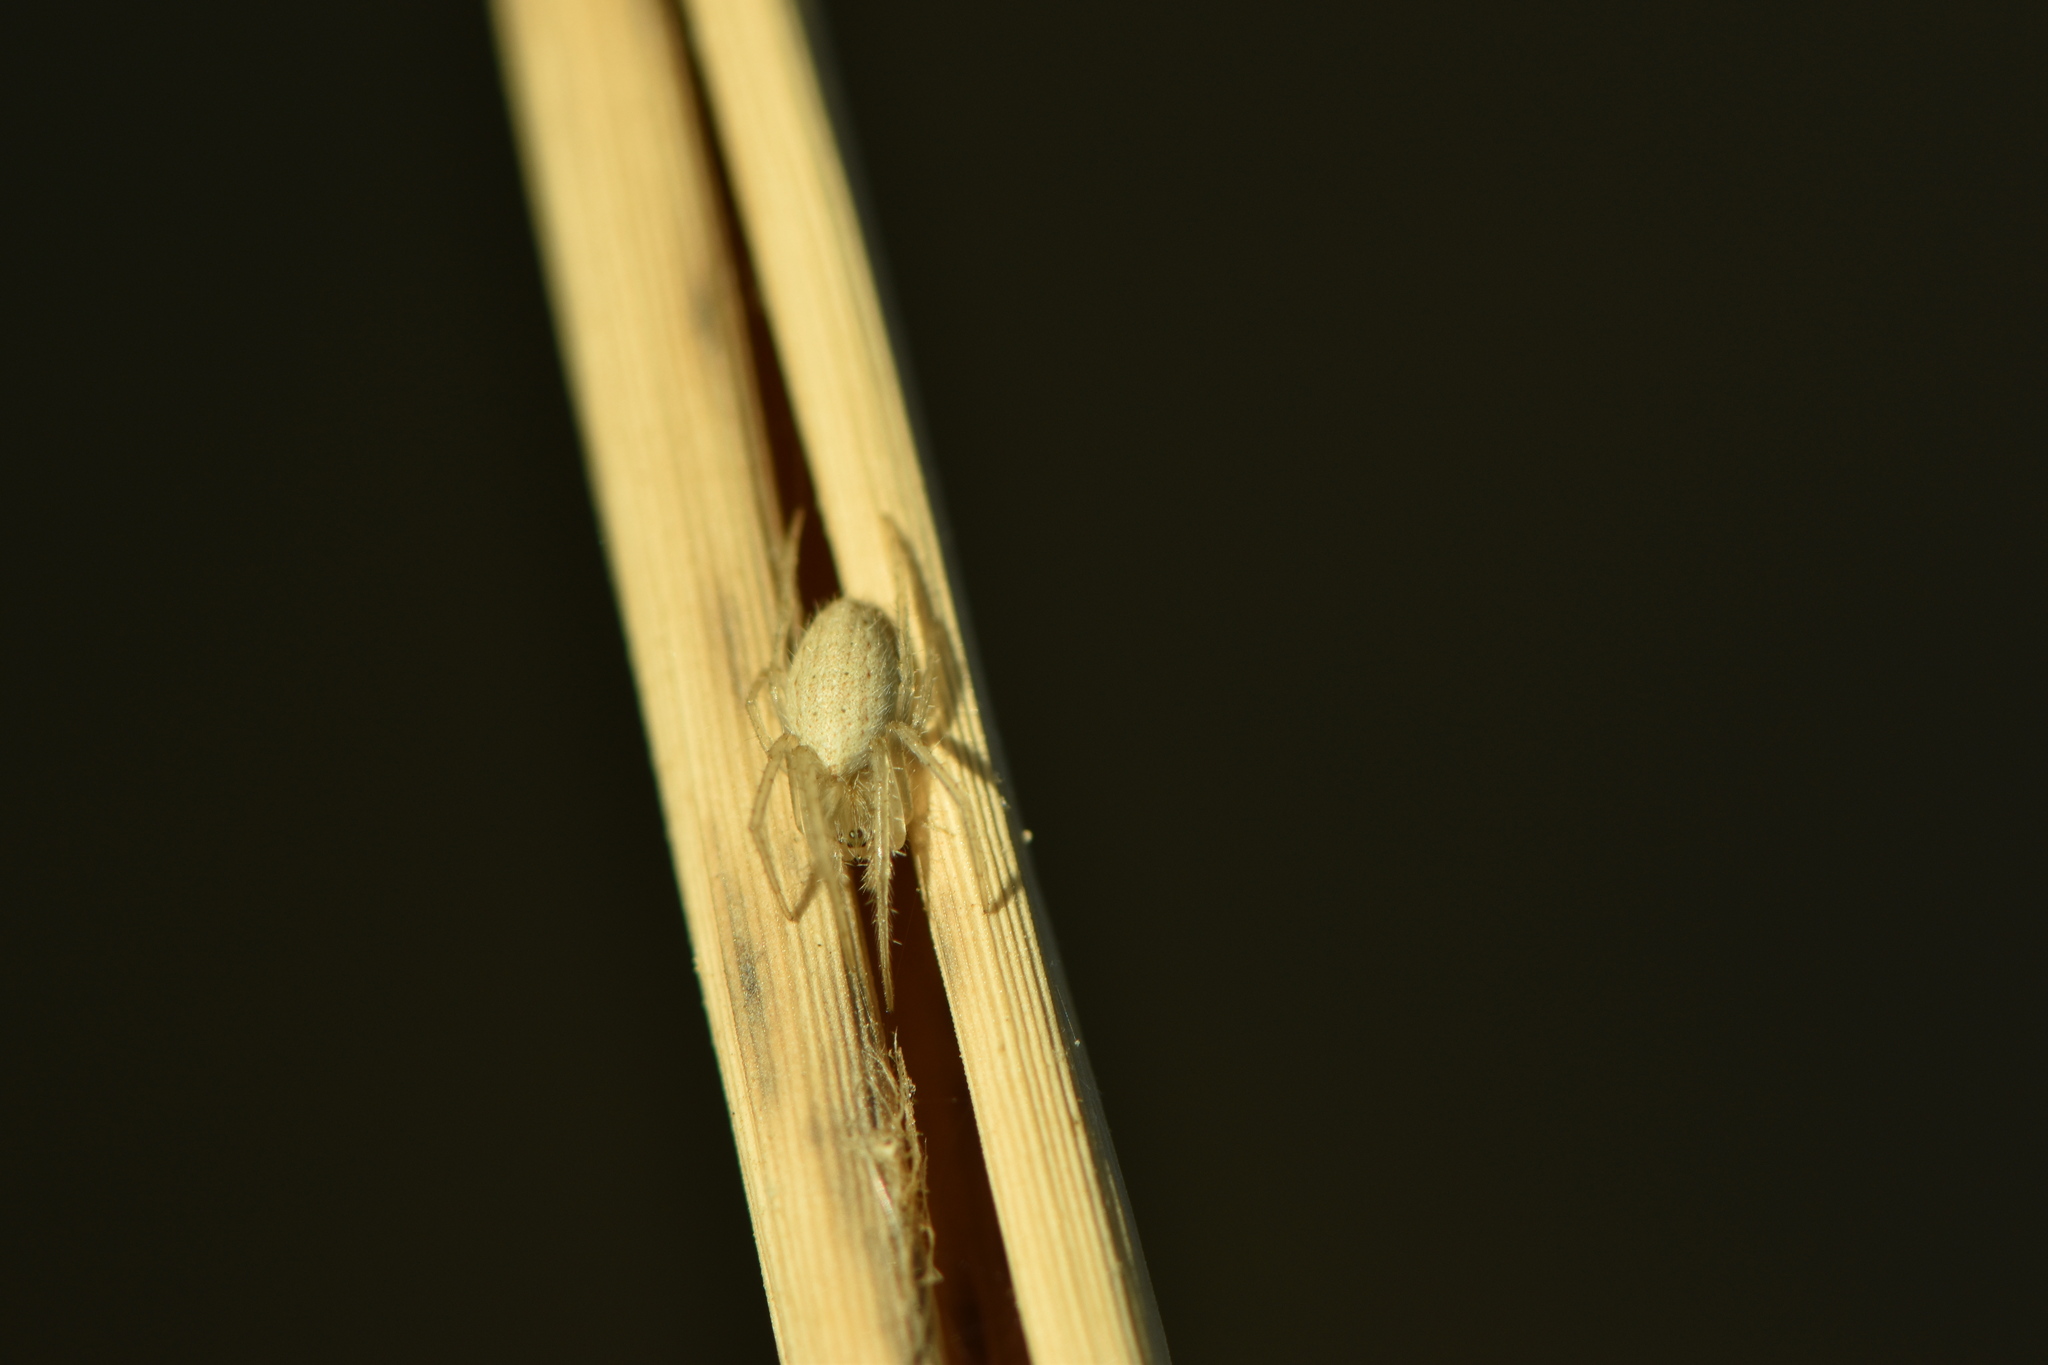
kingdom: Animalia
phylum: Arthropoda
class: Arachnida
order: Araneae
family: Araneidae
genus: Larinia
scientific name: Larinia lineata
